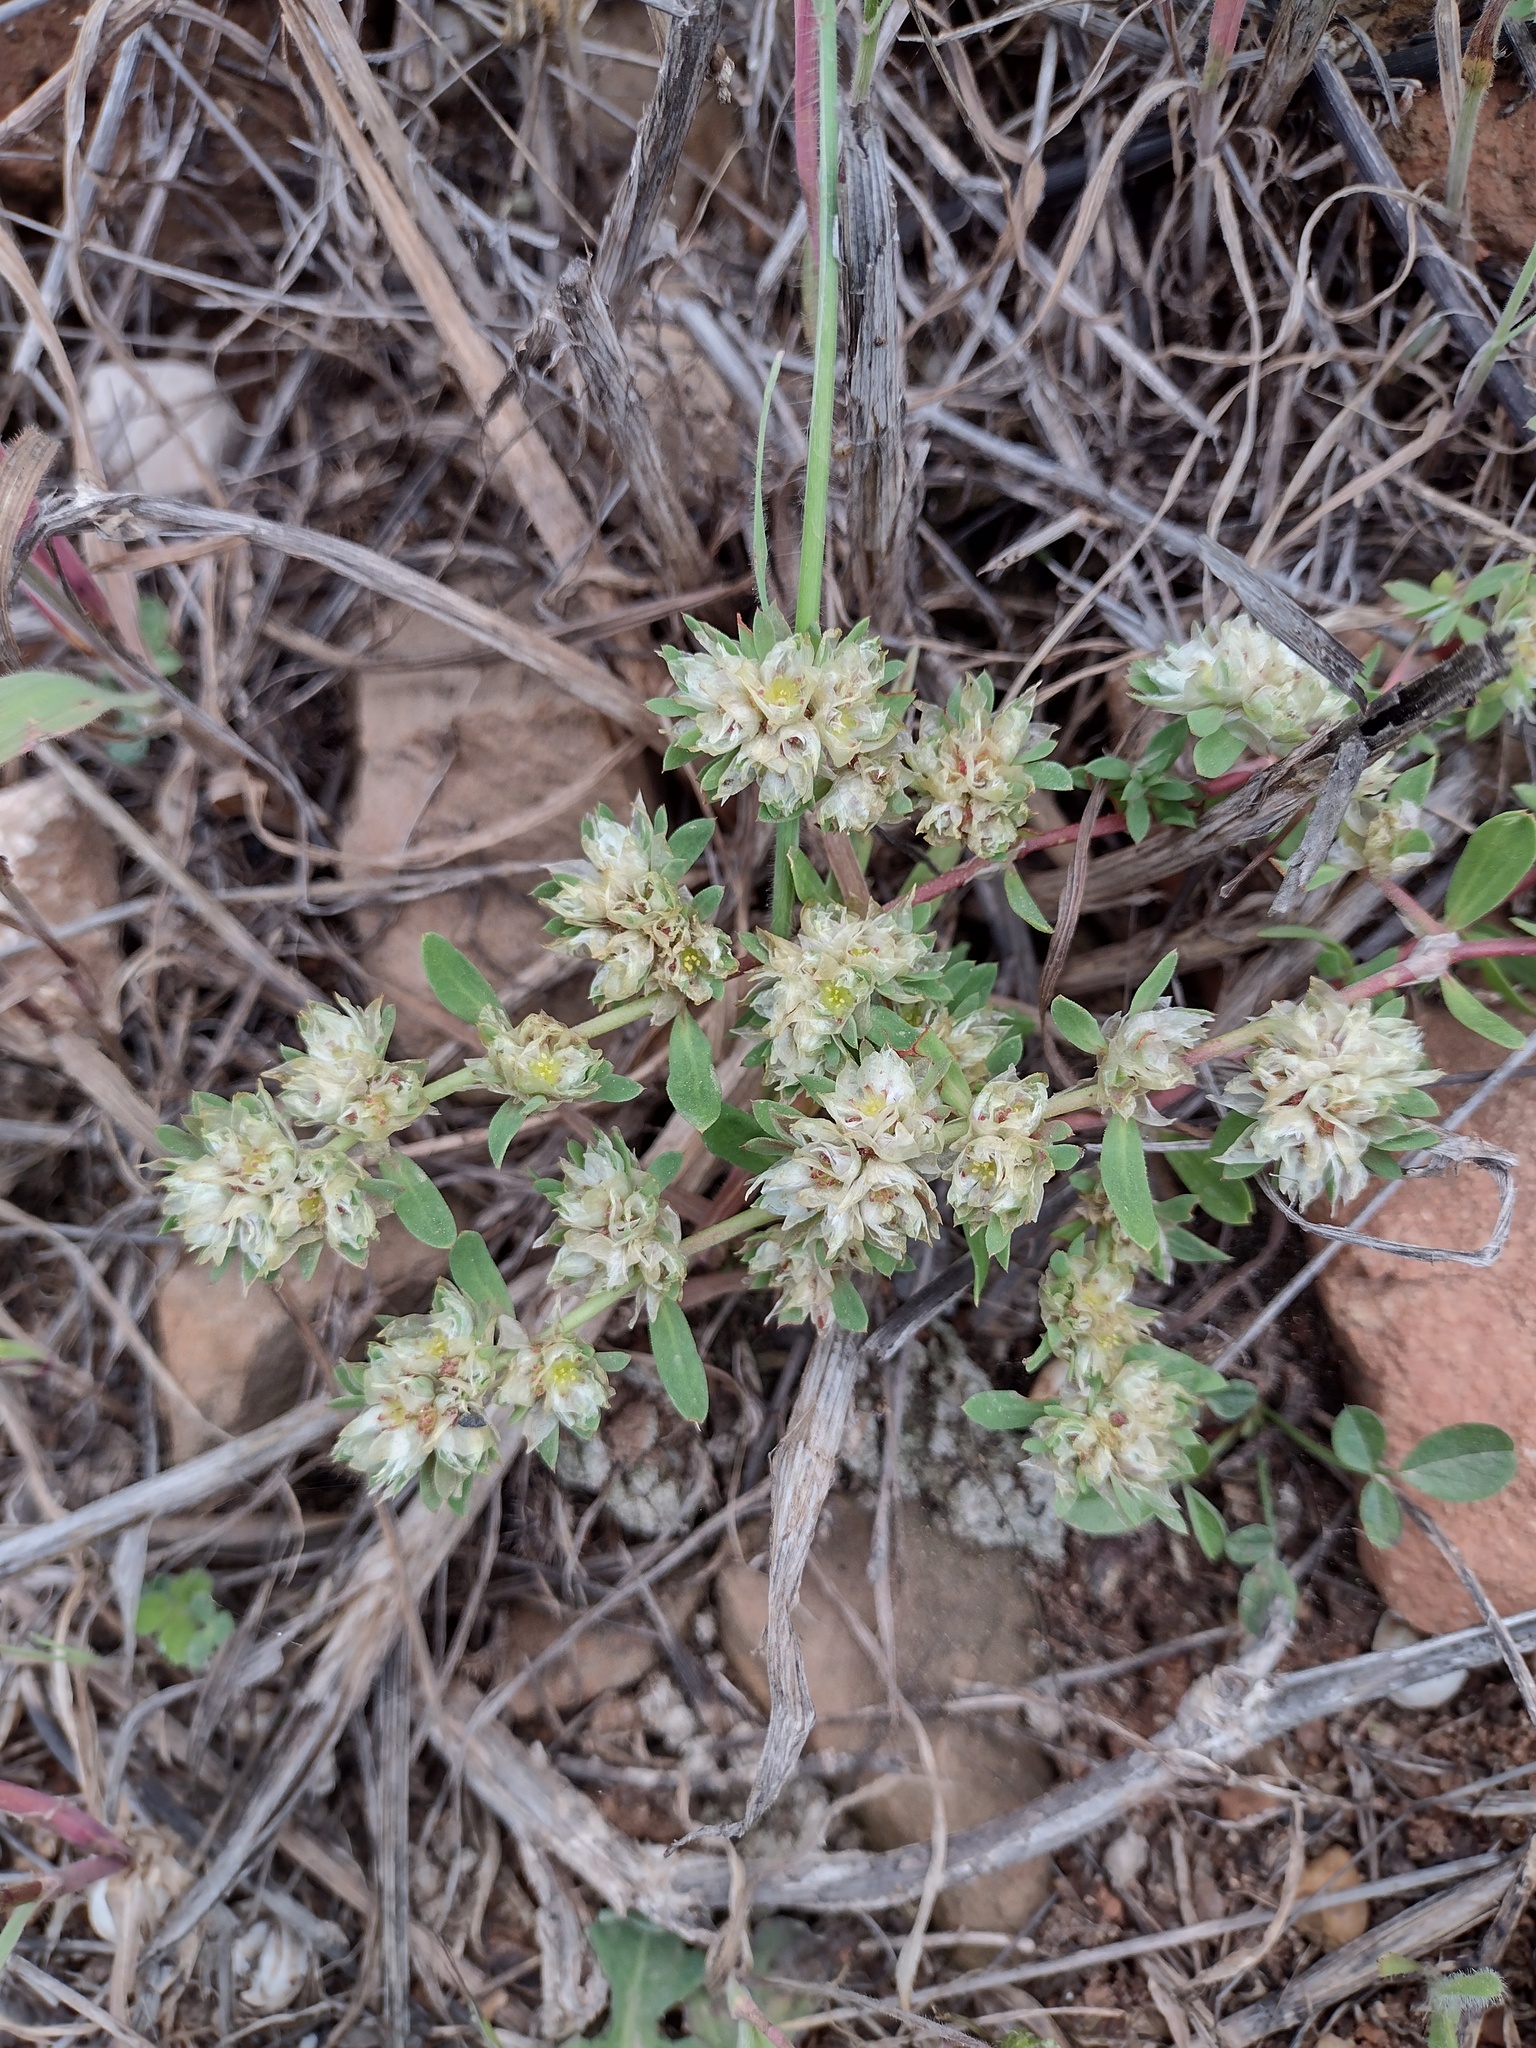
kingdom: Plantae
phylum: Tracheophyta
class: Magnoliopsida
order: Caryophyllales
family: Caryophyllaceae
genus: Paronychia
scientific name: Paronychia argentea
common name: Silver nailroot
